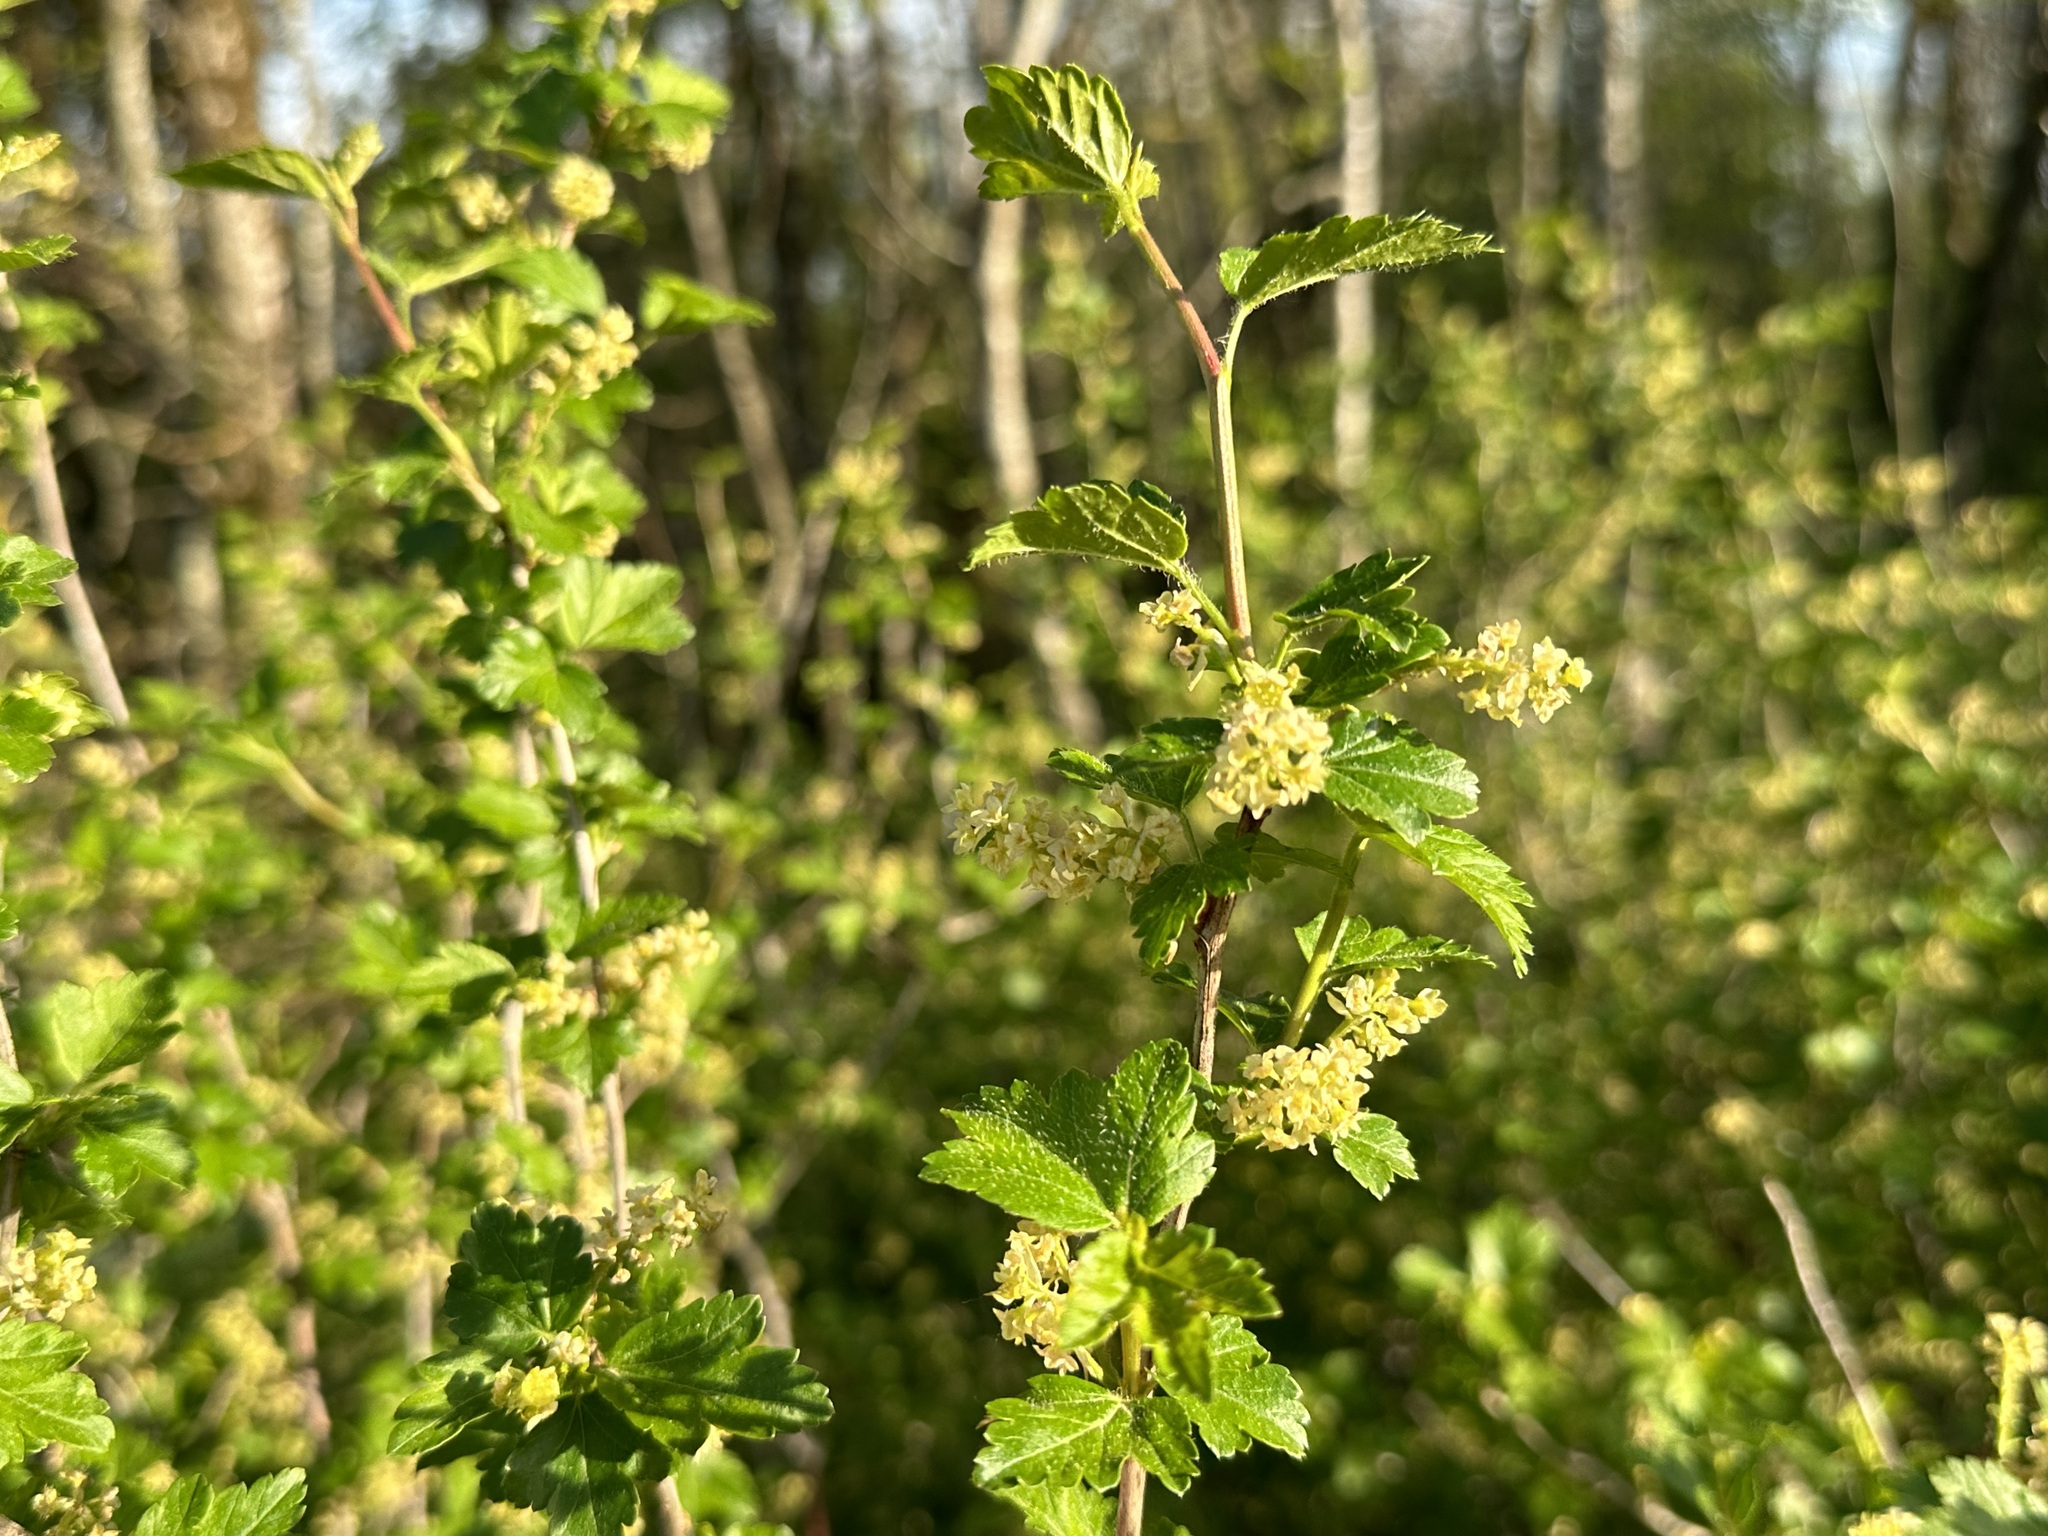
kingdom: Plantae
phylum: Tracheophyta
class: Magnoliopsida
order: Saxifragales
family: Grossulariaceae
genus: Ribes
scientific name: Ribes alpinum
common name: Alpine currant
